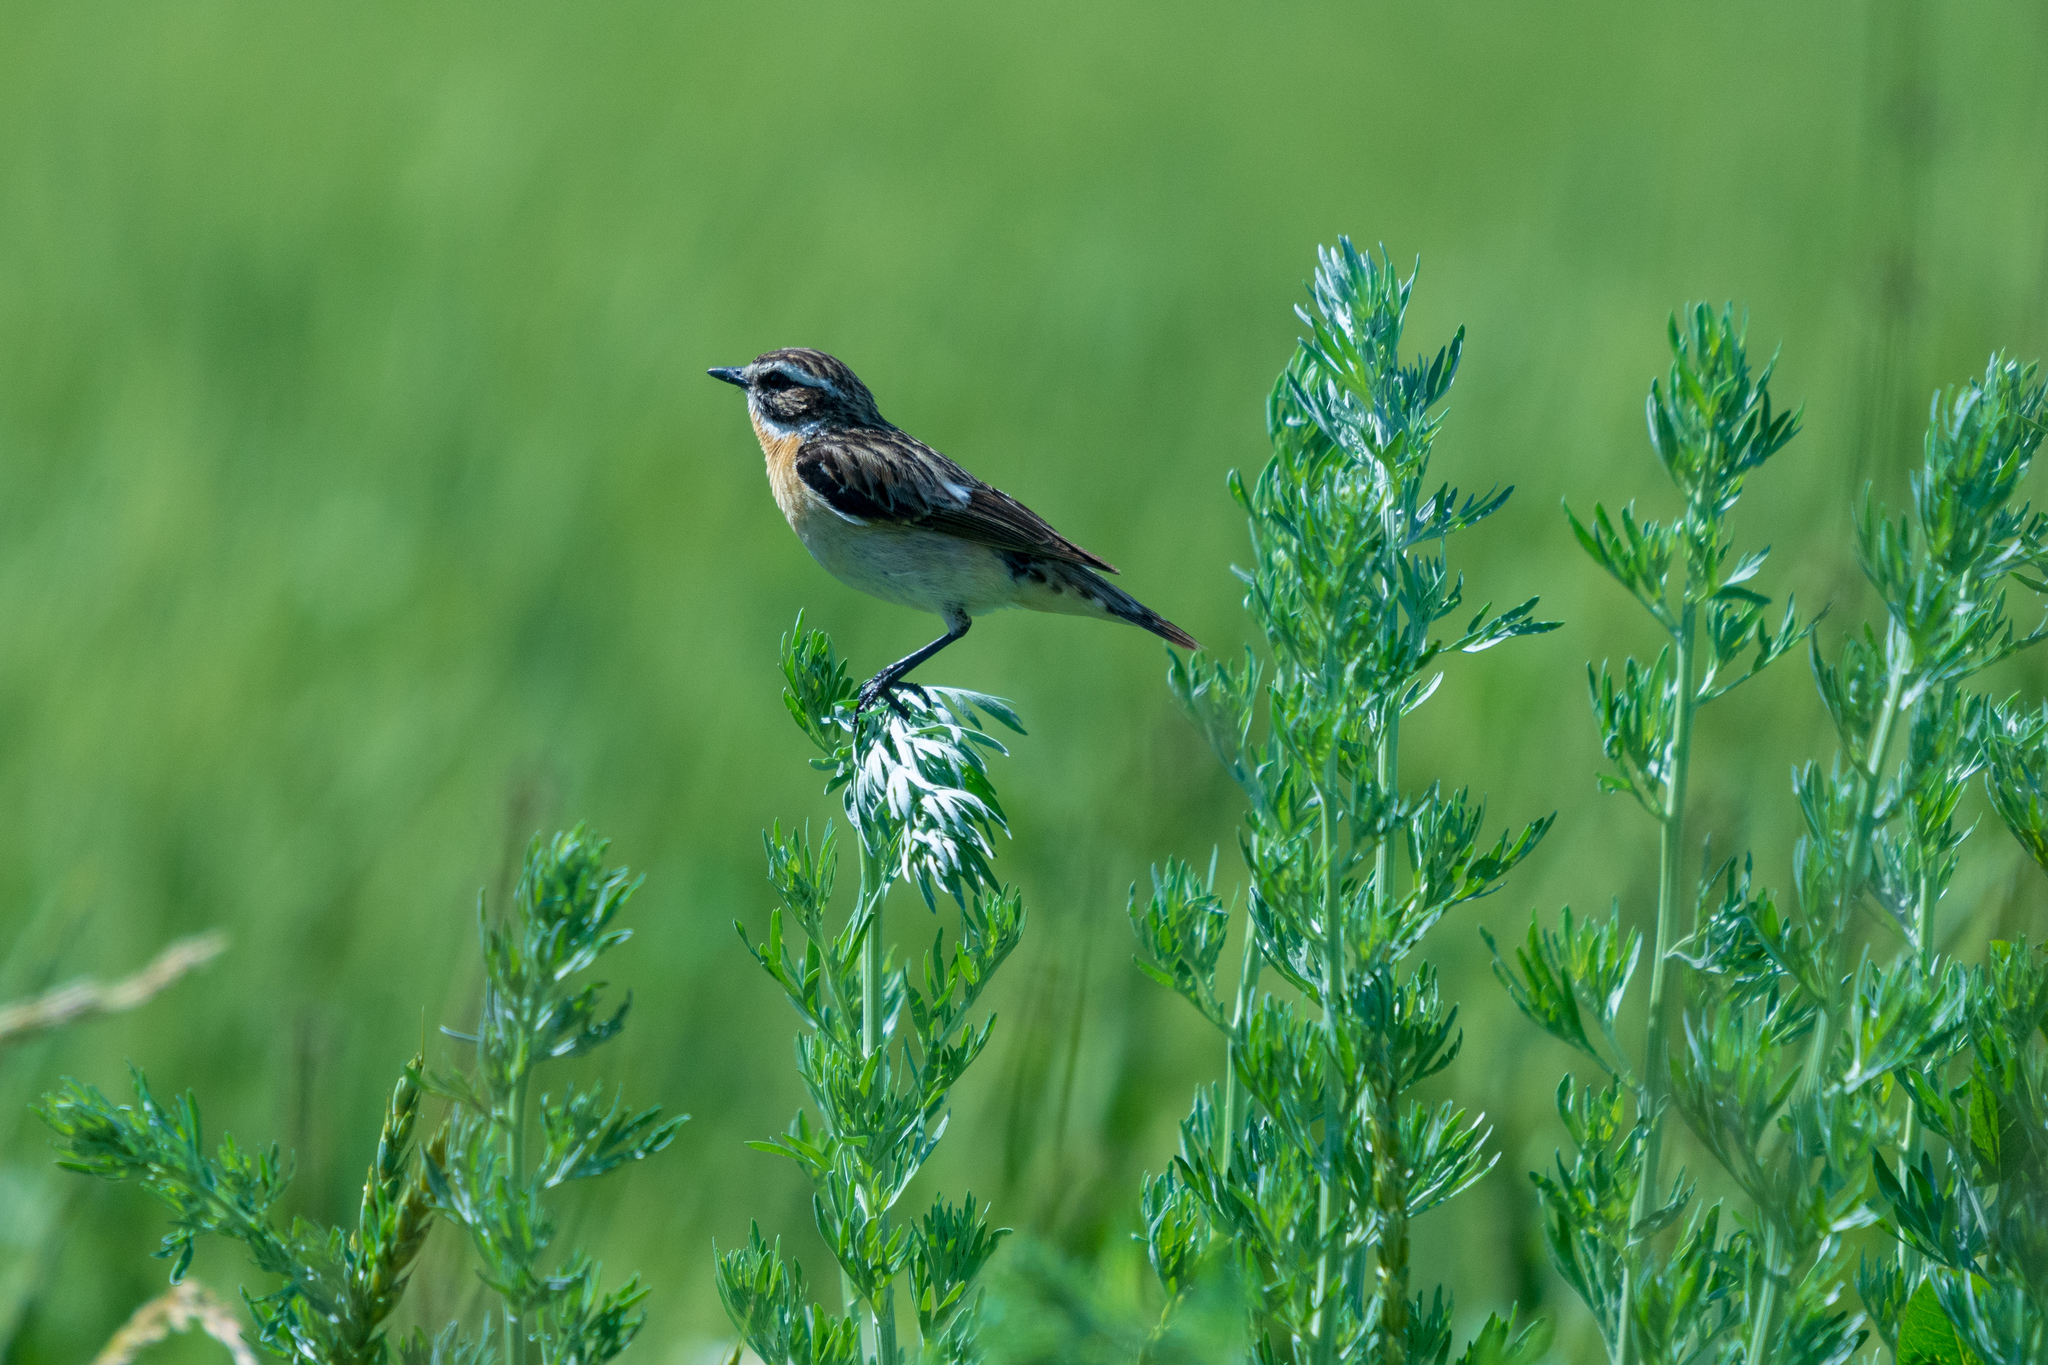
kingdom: Animalia
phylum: Chordata
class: Aves
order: Passeriformes
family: Muscicapidae
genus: Saxicola
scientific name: Saxicola rubetra
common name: Whinchat
